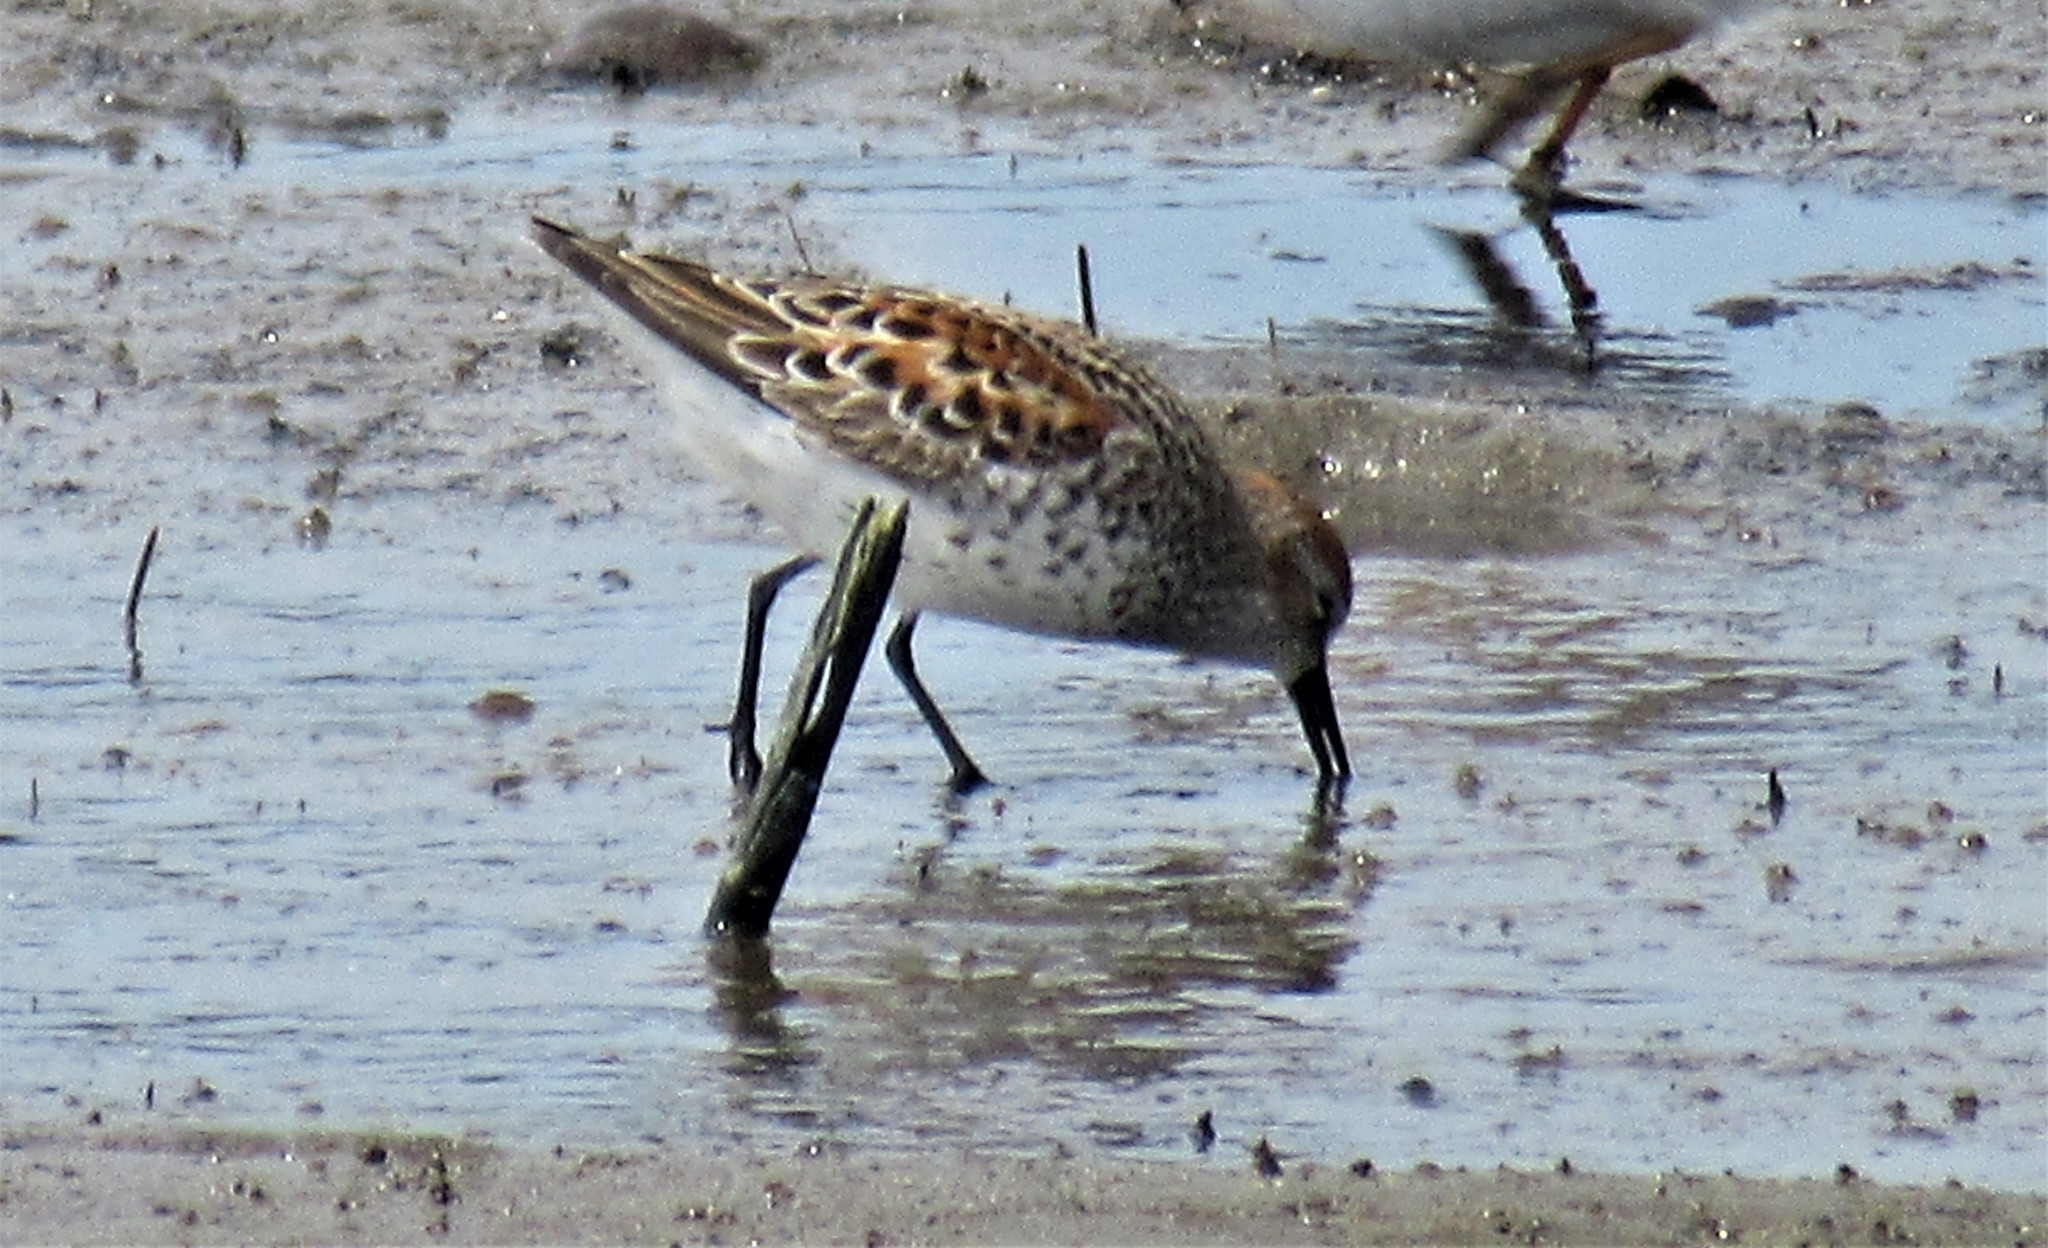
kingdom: Animalia
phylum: Chordata
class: Aves
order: Charadriiformes
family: Scolopacidae
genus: Calidris
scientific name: Calidris mauri
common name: Western sandpiper
